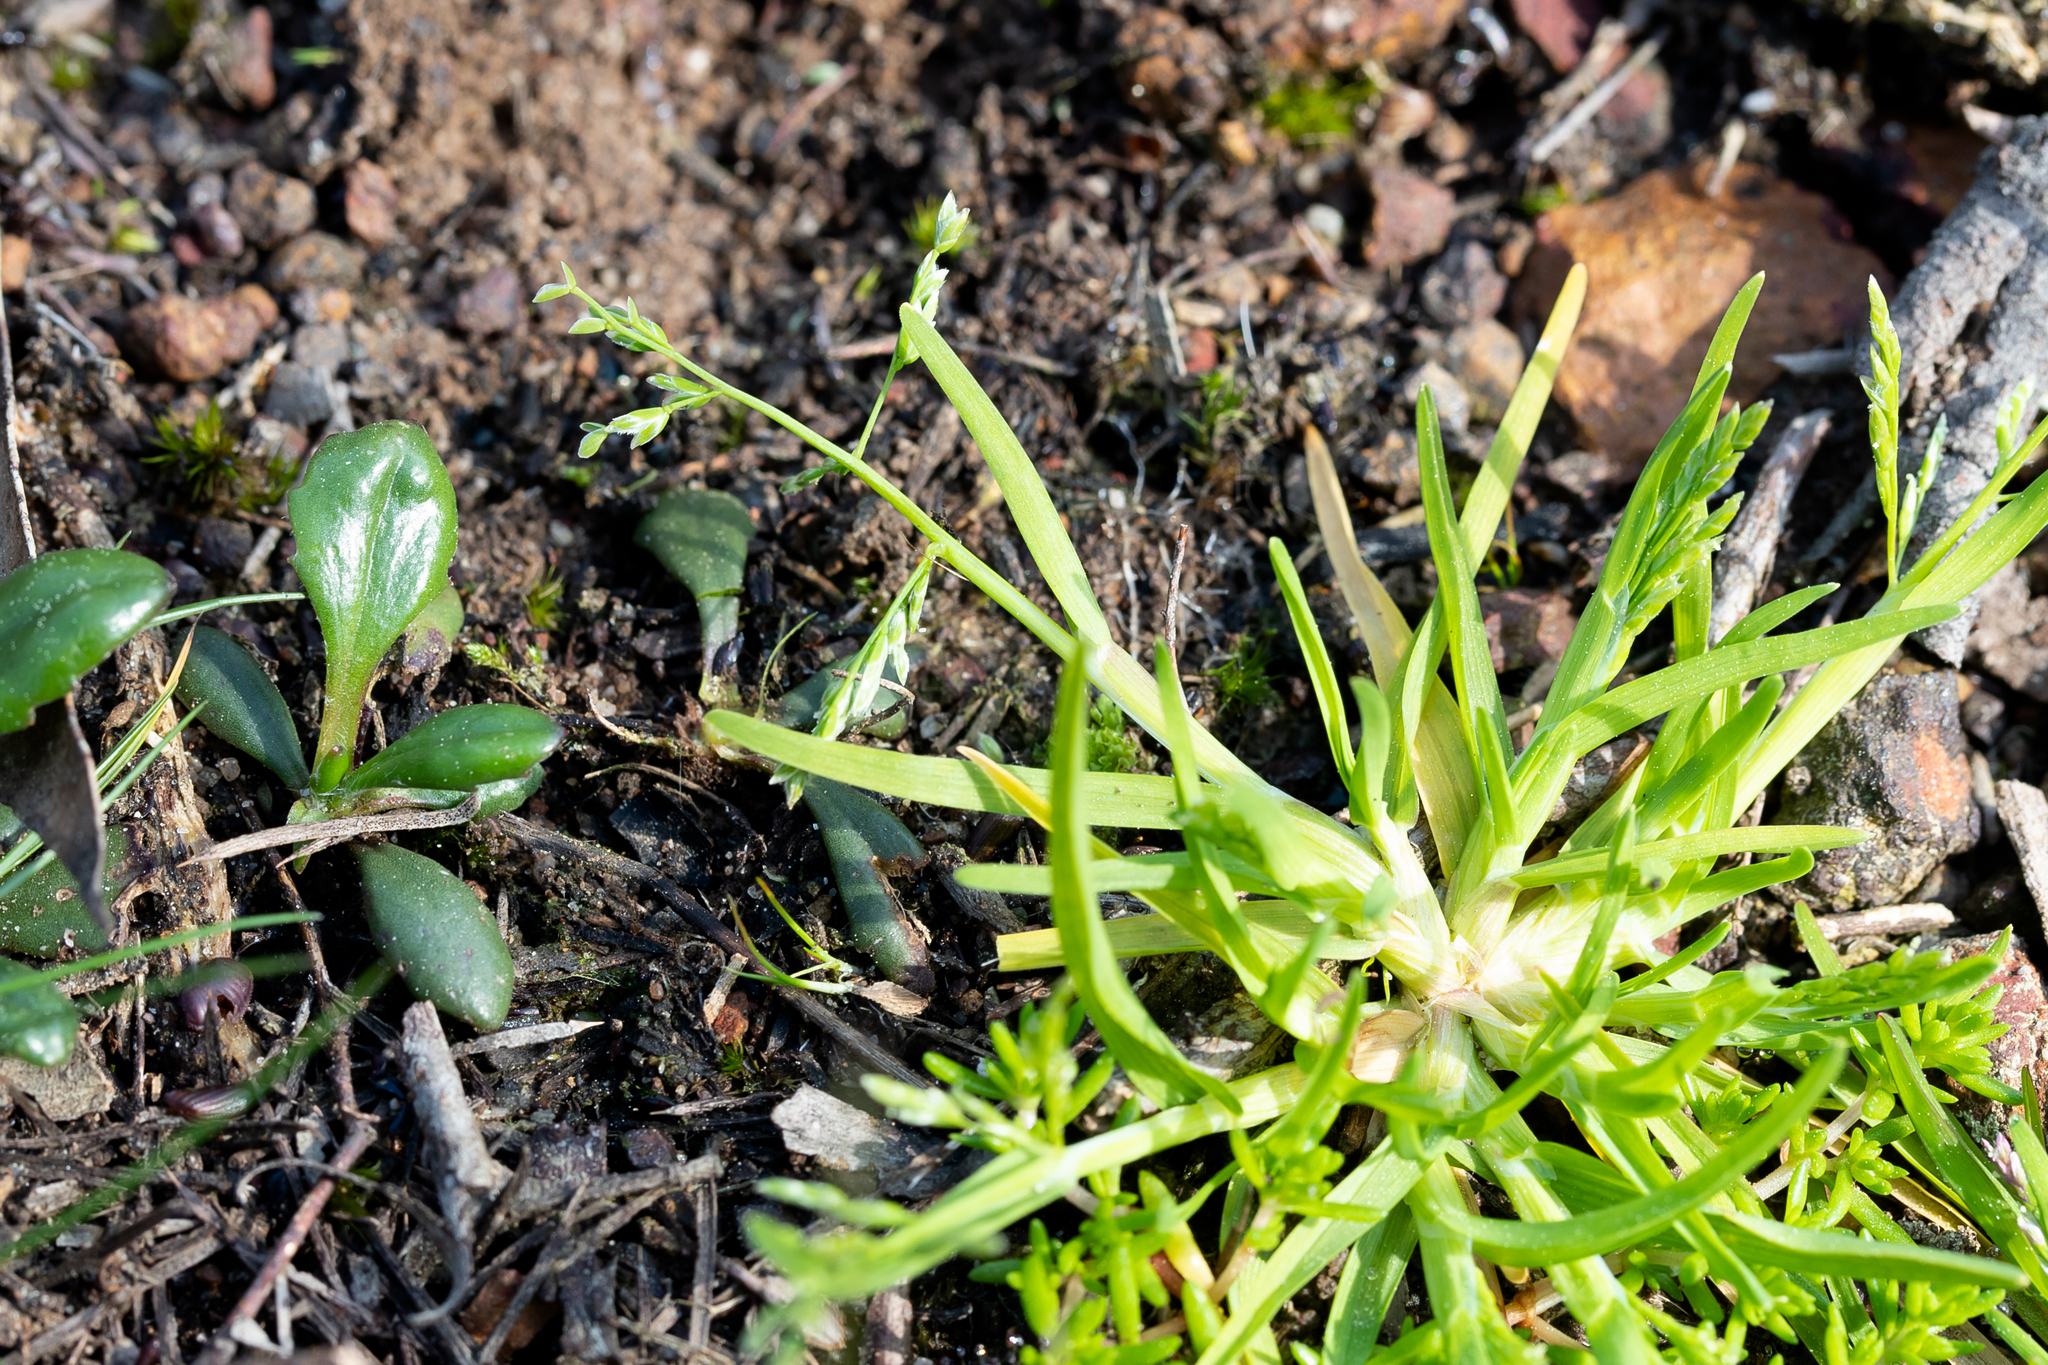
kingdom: Plantae
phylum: Tracheophyta
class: Liliopsida
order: Poales
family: Poaceae
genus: Poa
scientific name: Poa annua
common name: Annual bluegrass
